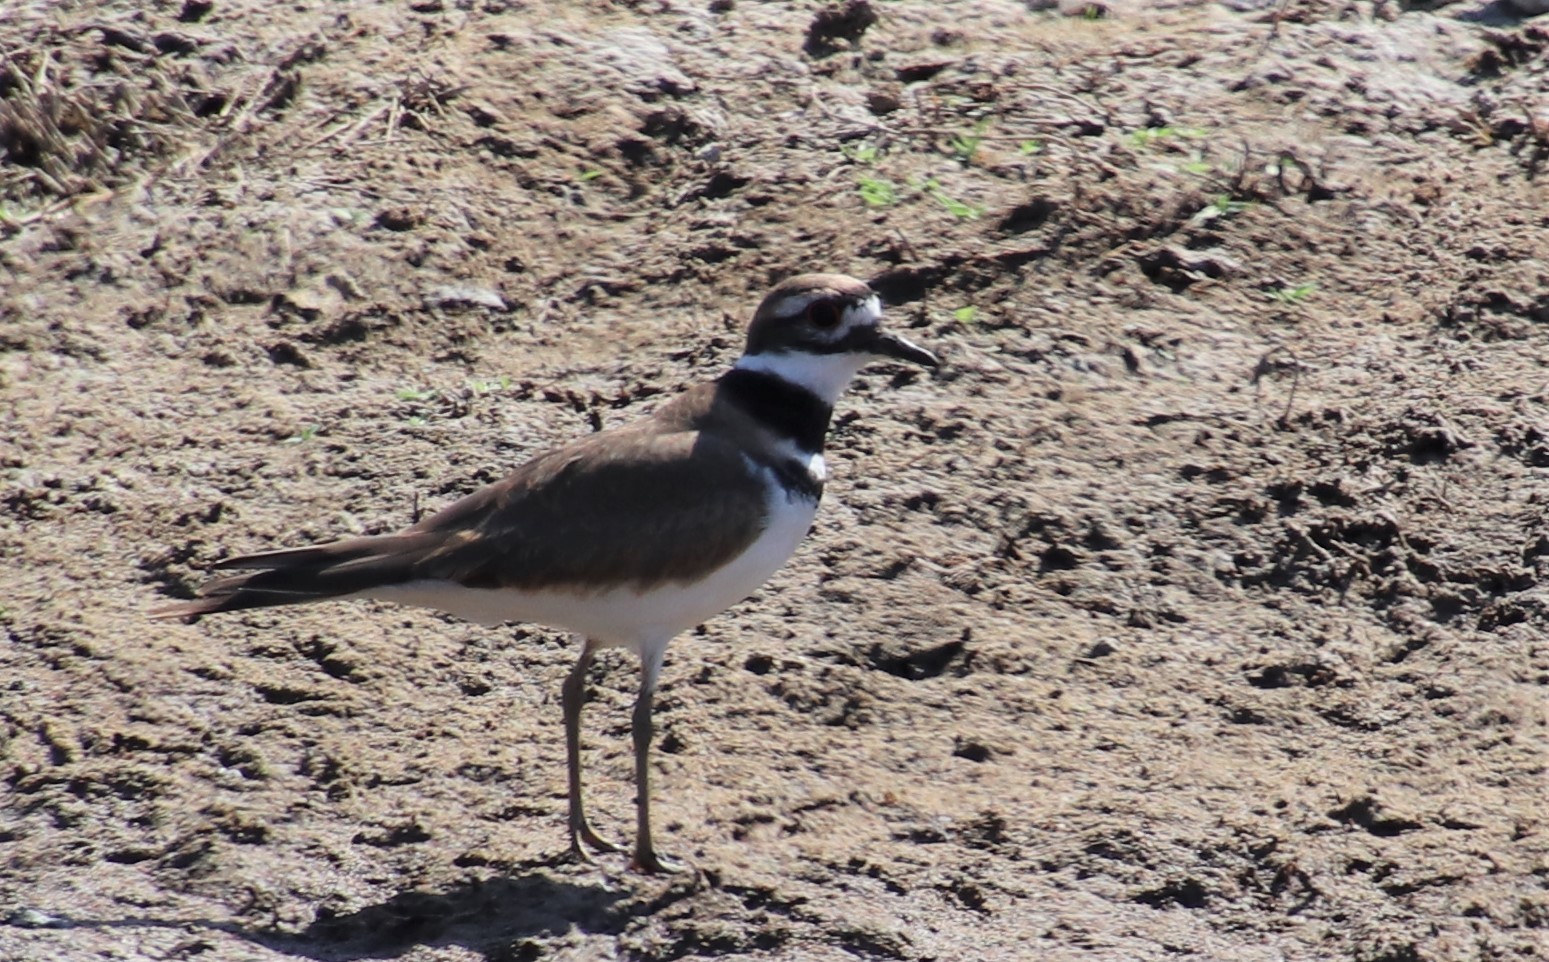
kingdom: Animalia
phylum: Chordata
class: Aves
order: Charadriiformes
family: Charadriidae
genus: Charadrius
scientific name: Charadrius vociferus
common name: Killdeer
